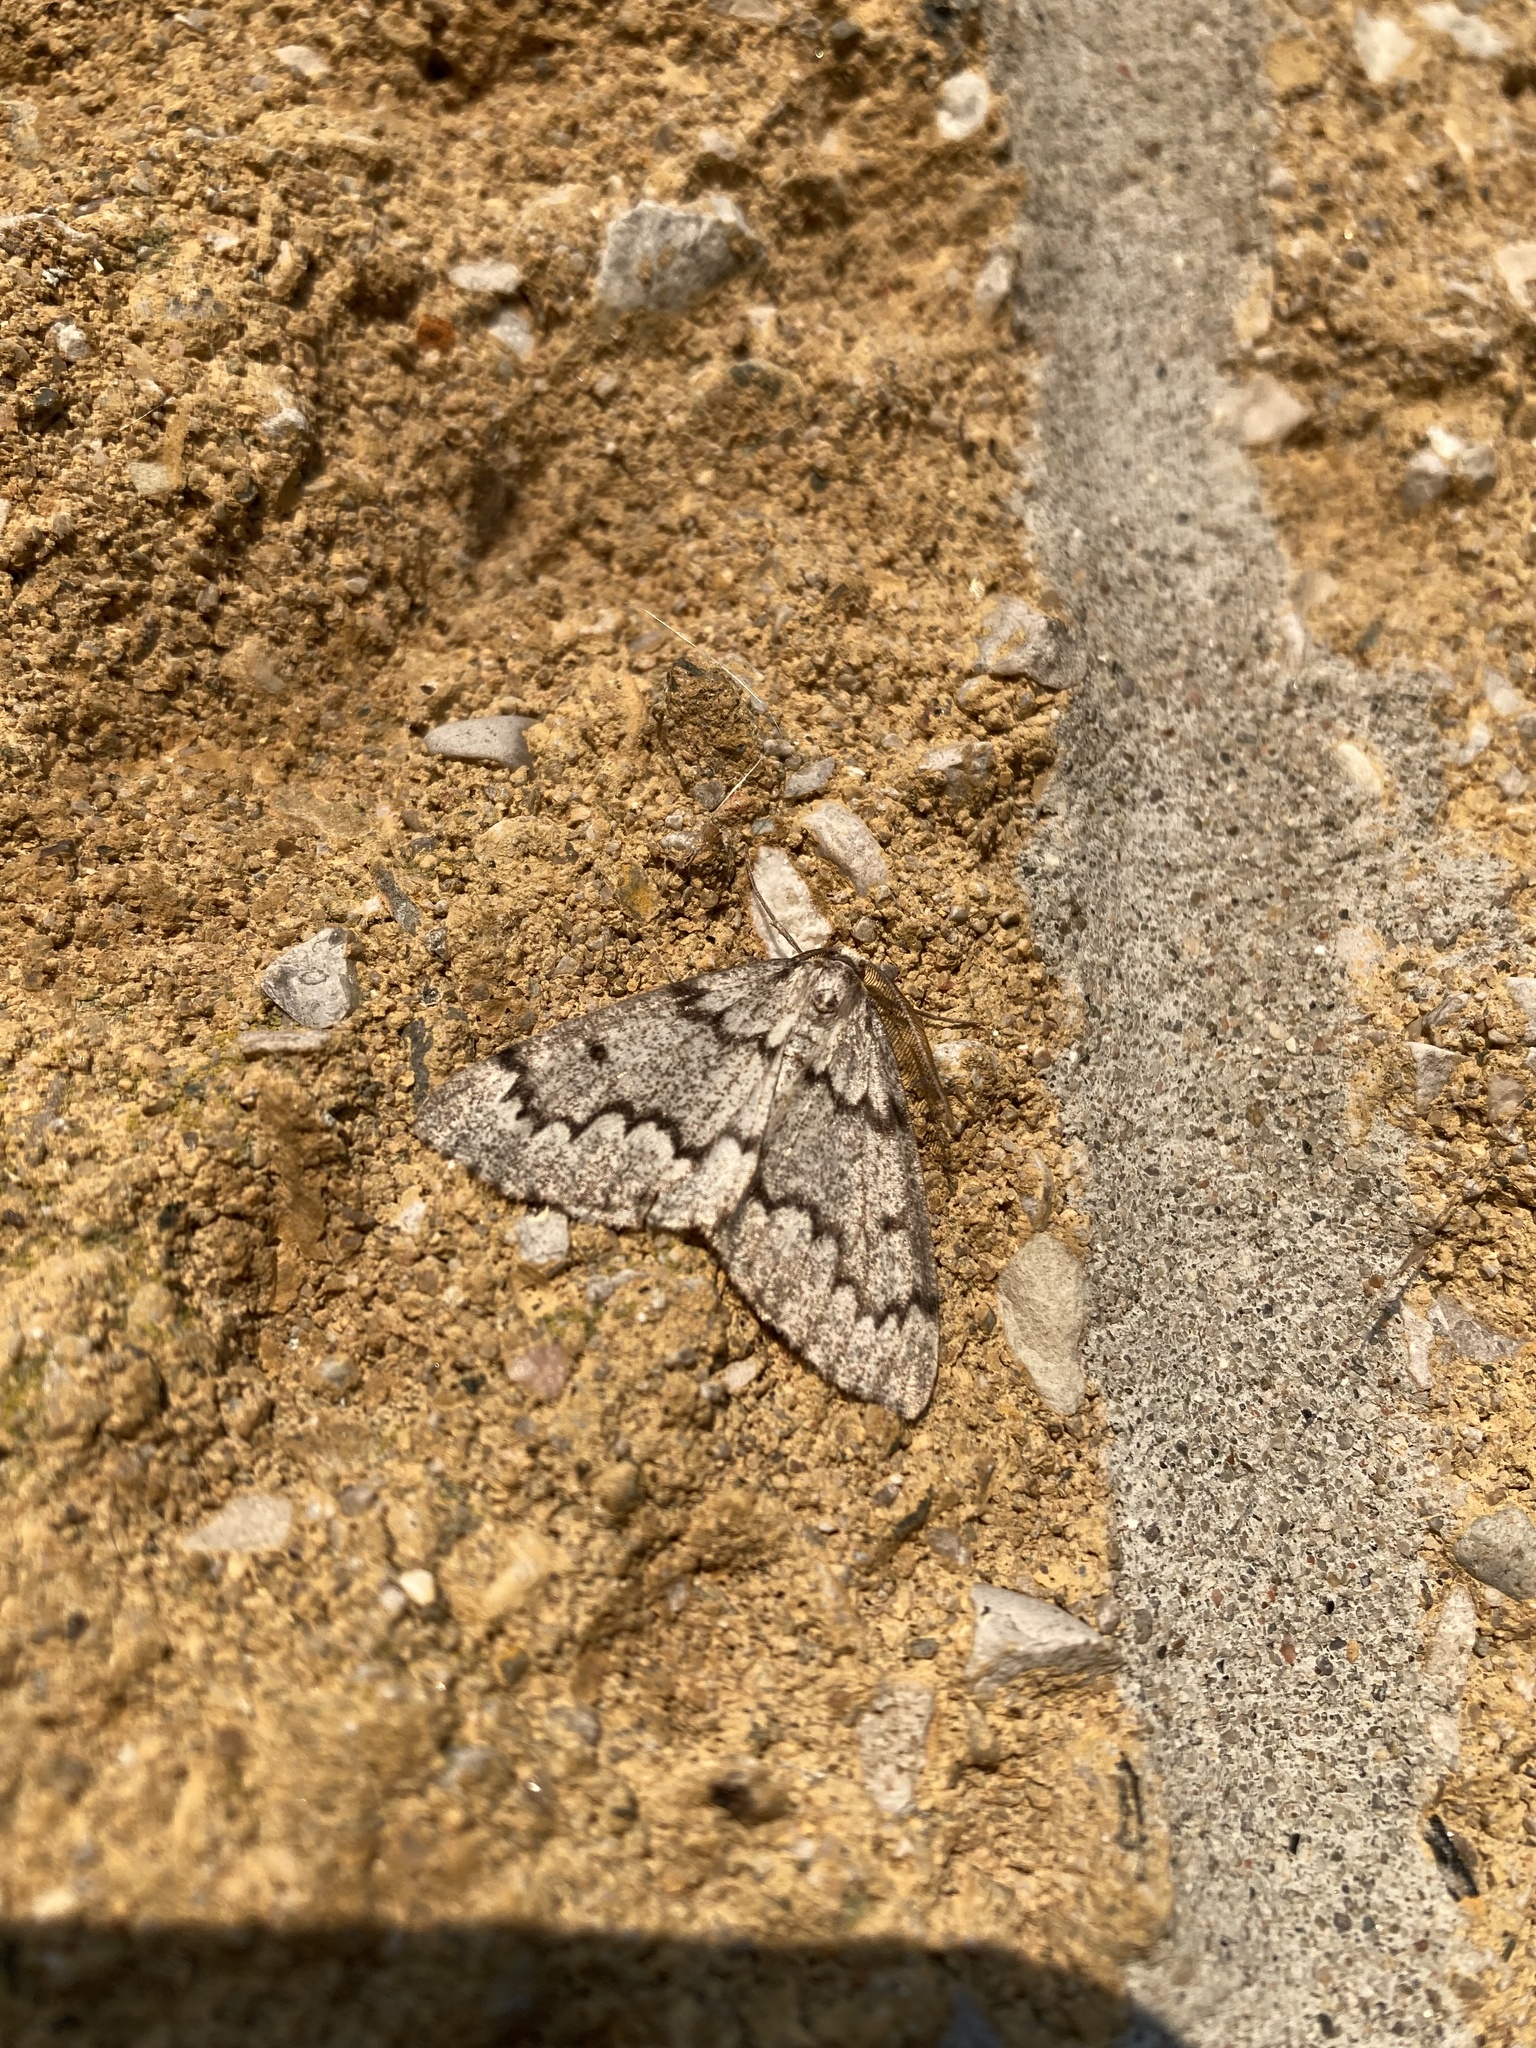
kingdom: Animalia
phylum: Arthropoda
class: Insecta
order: Lepidoptera
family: Geometridae
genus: Nepytia
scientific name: Nepytia canosaria
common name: False hemlock looper
